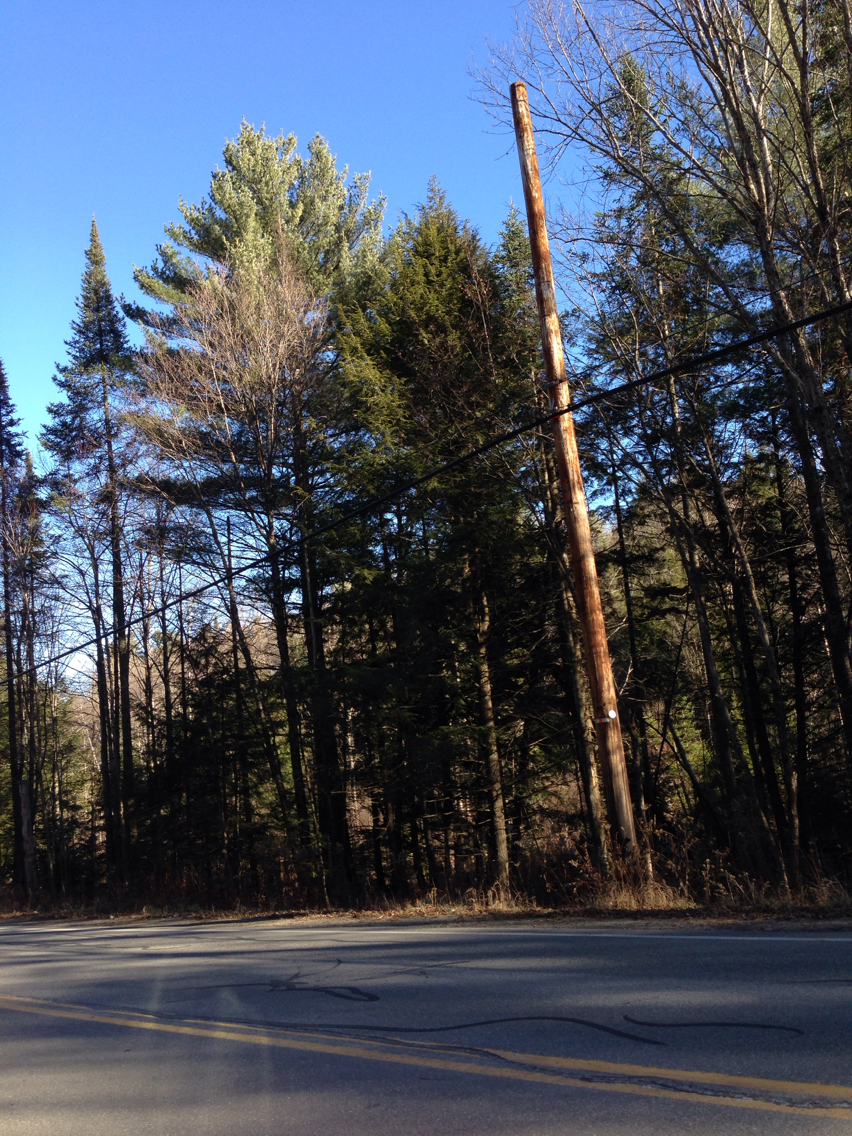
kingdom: Plantae
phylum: Tracheophyta
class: Pinopsida
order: Pinales
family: Pinaceae
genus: Pinus
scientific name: Pinus strobus
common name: Weymouth pine
